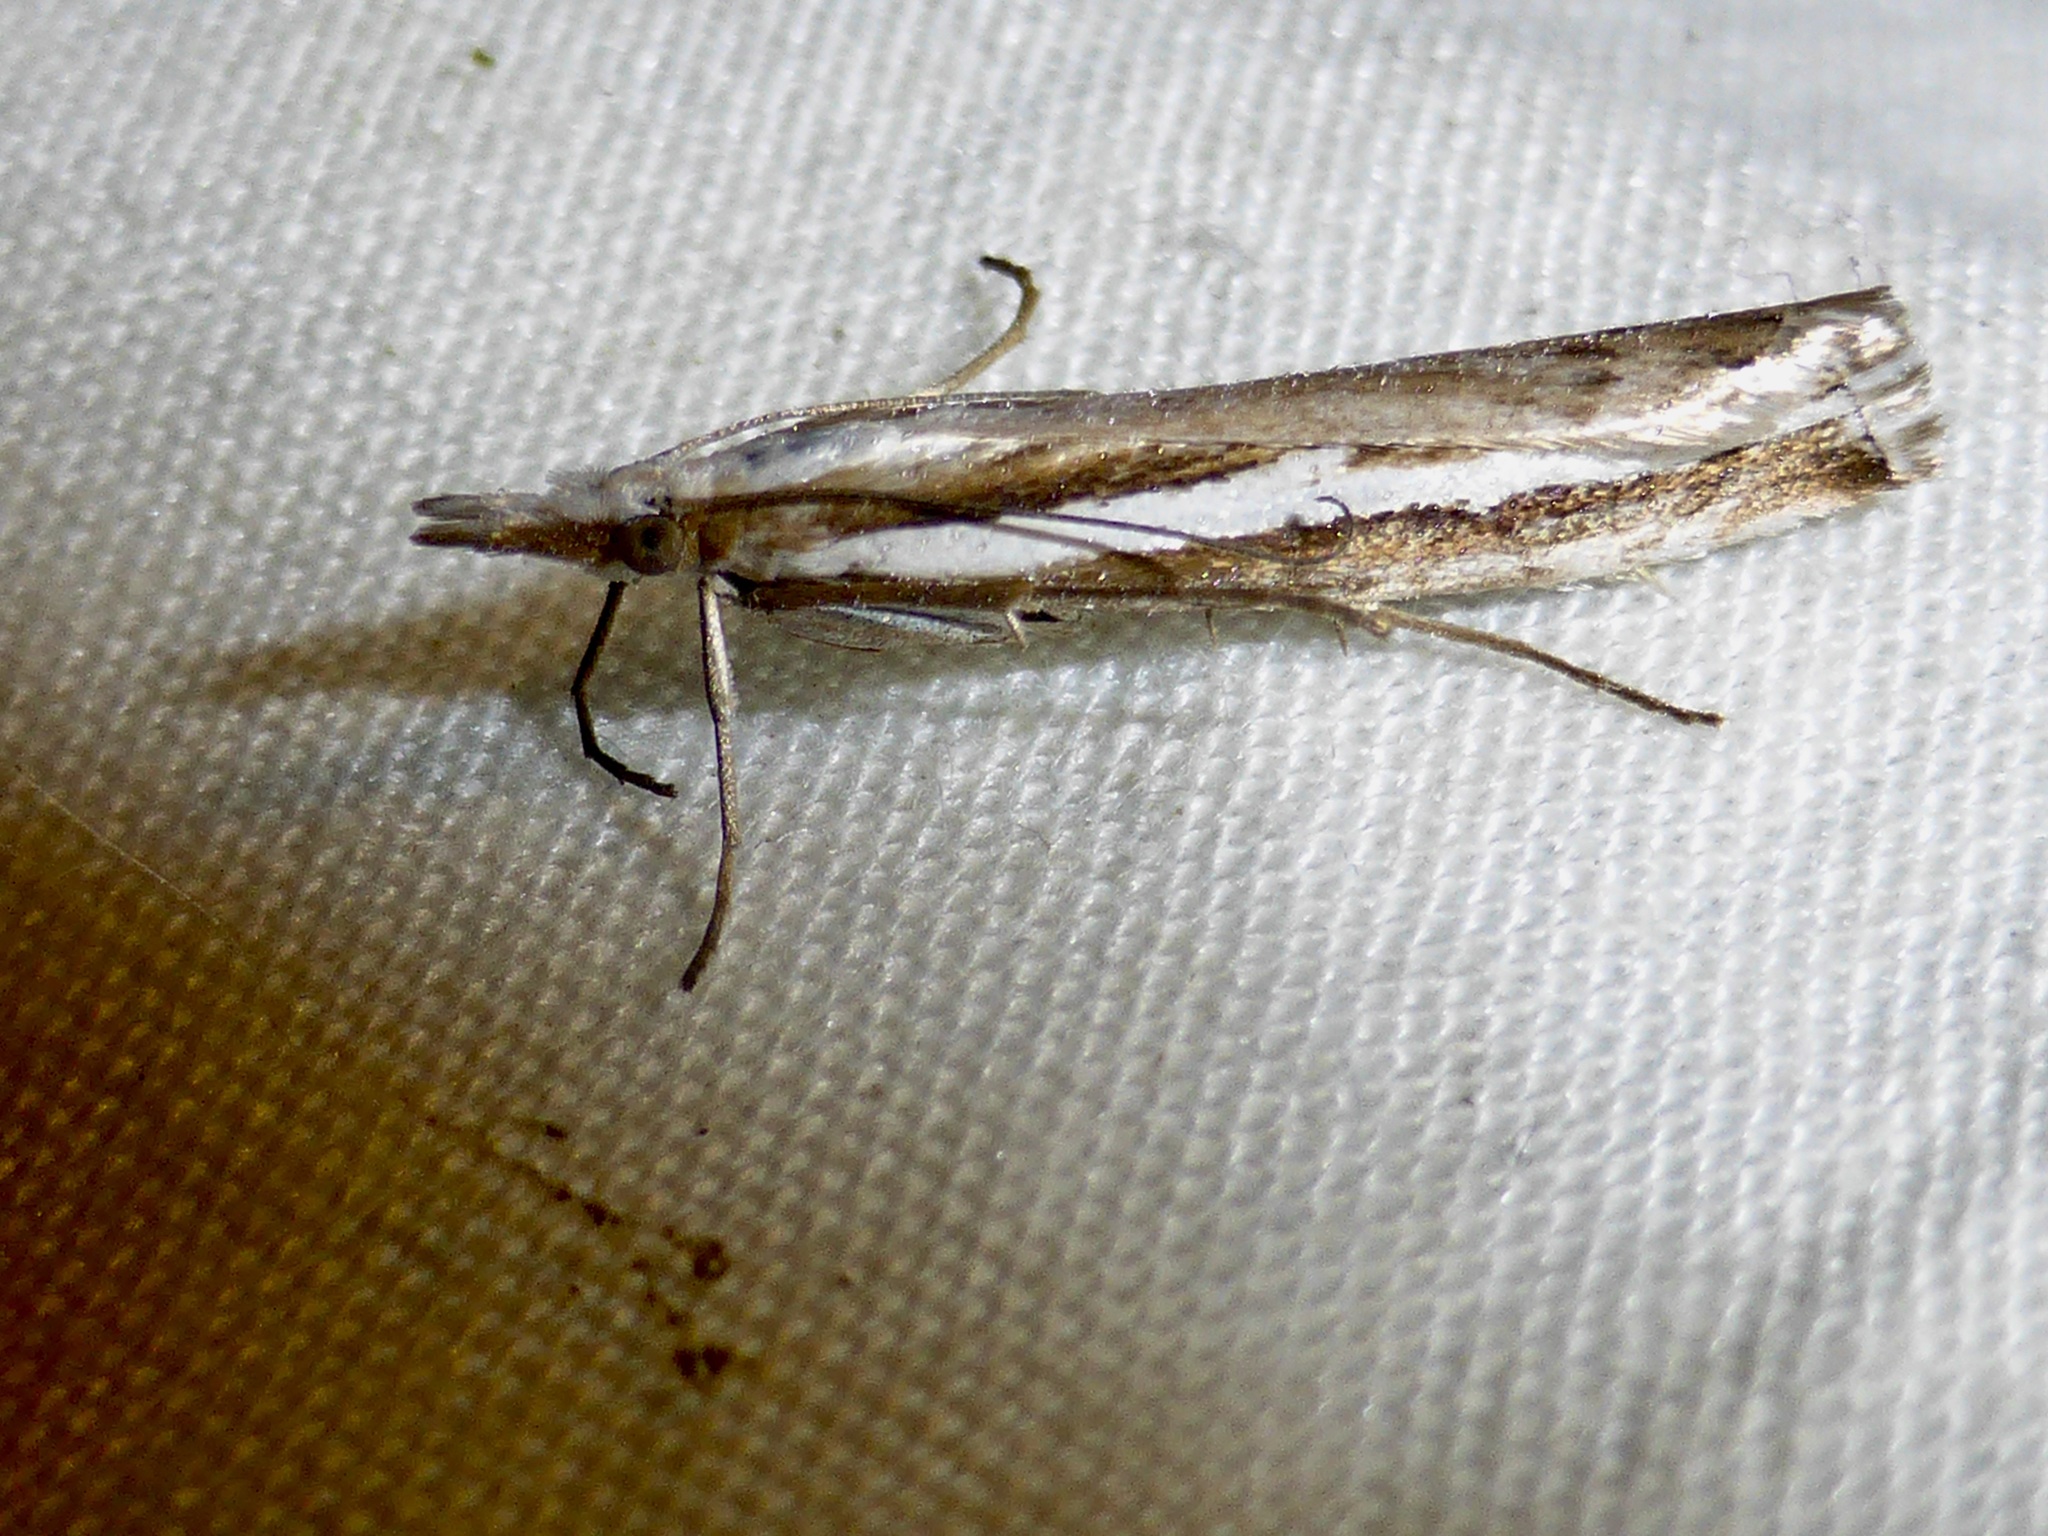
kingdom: Animalia
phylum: Arthropoda
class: Insecta
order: Lepidoptera
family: Crambidae
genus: Orocrambus
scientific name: Orocrambus vittellus
